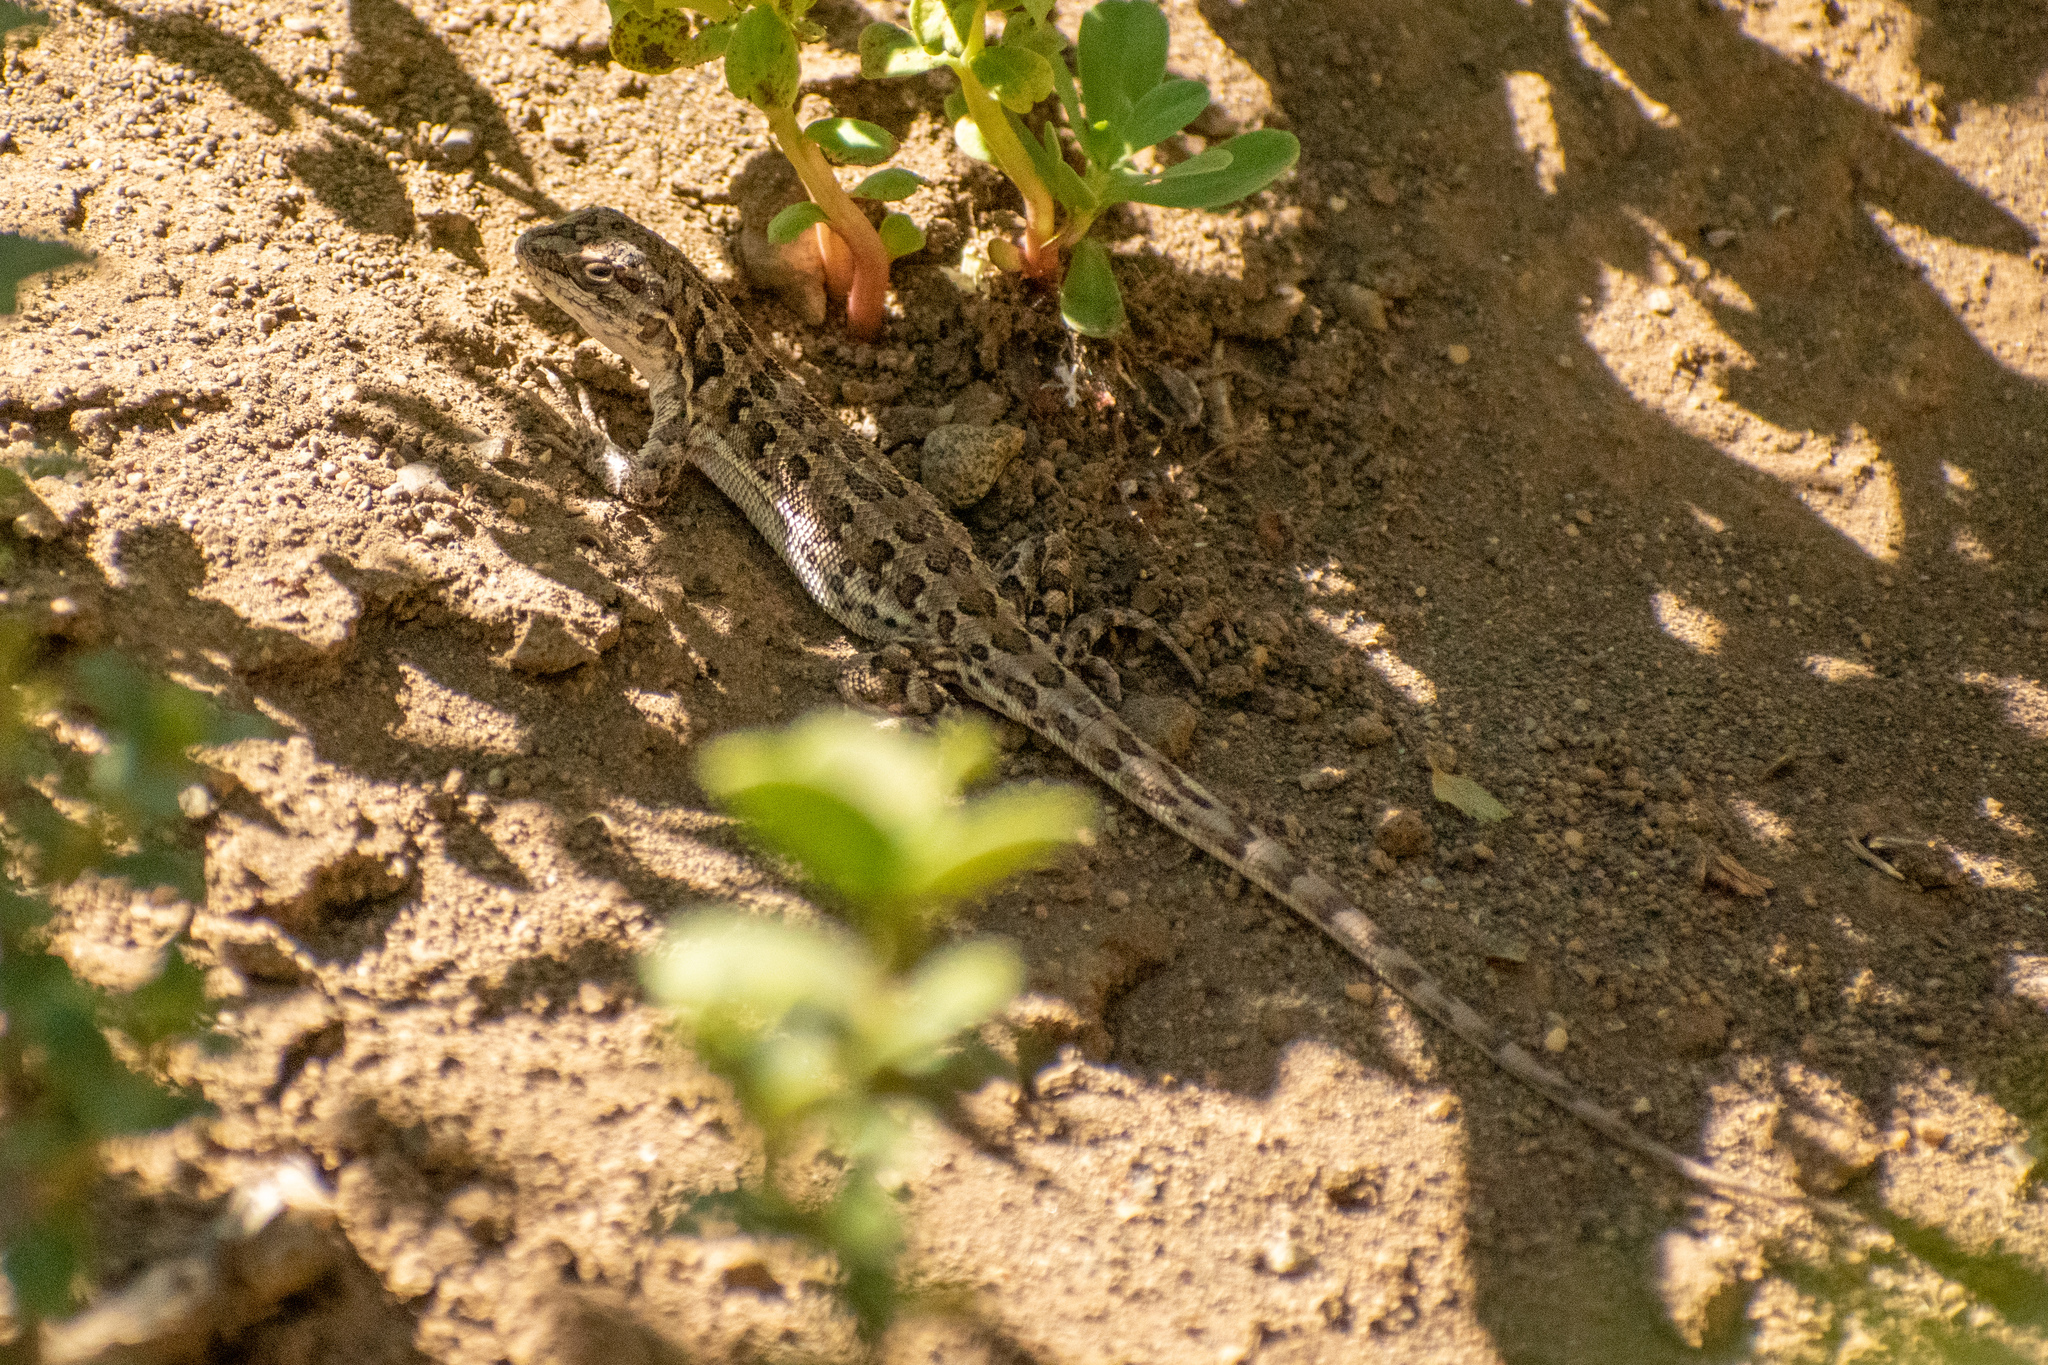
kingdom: Animalia
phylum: Chordata
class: Squamata
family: Liolaemidae
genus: Liolaemus
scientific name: Liolaemus rothi
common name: Roth's sand iguana
